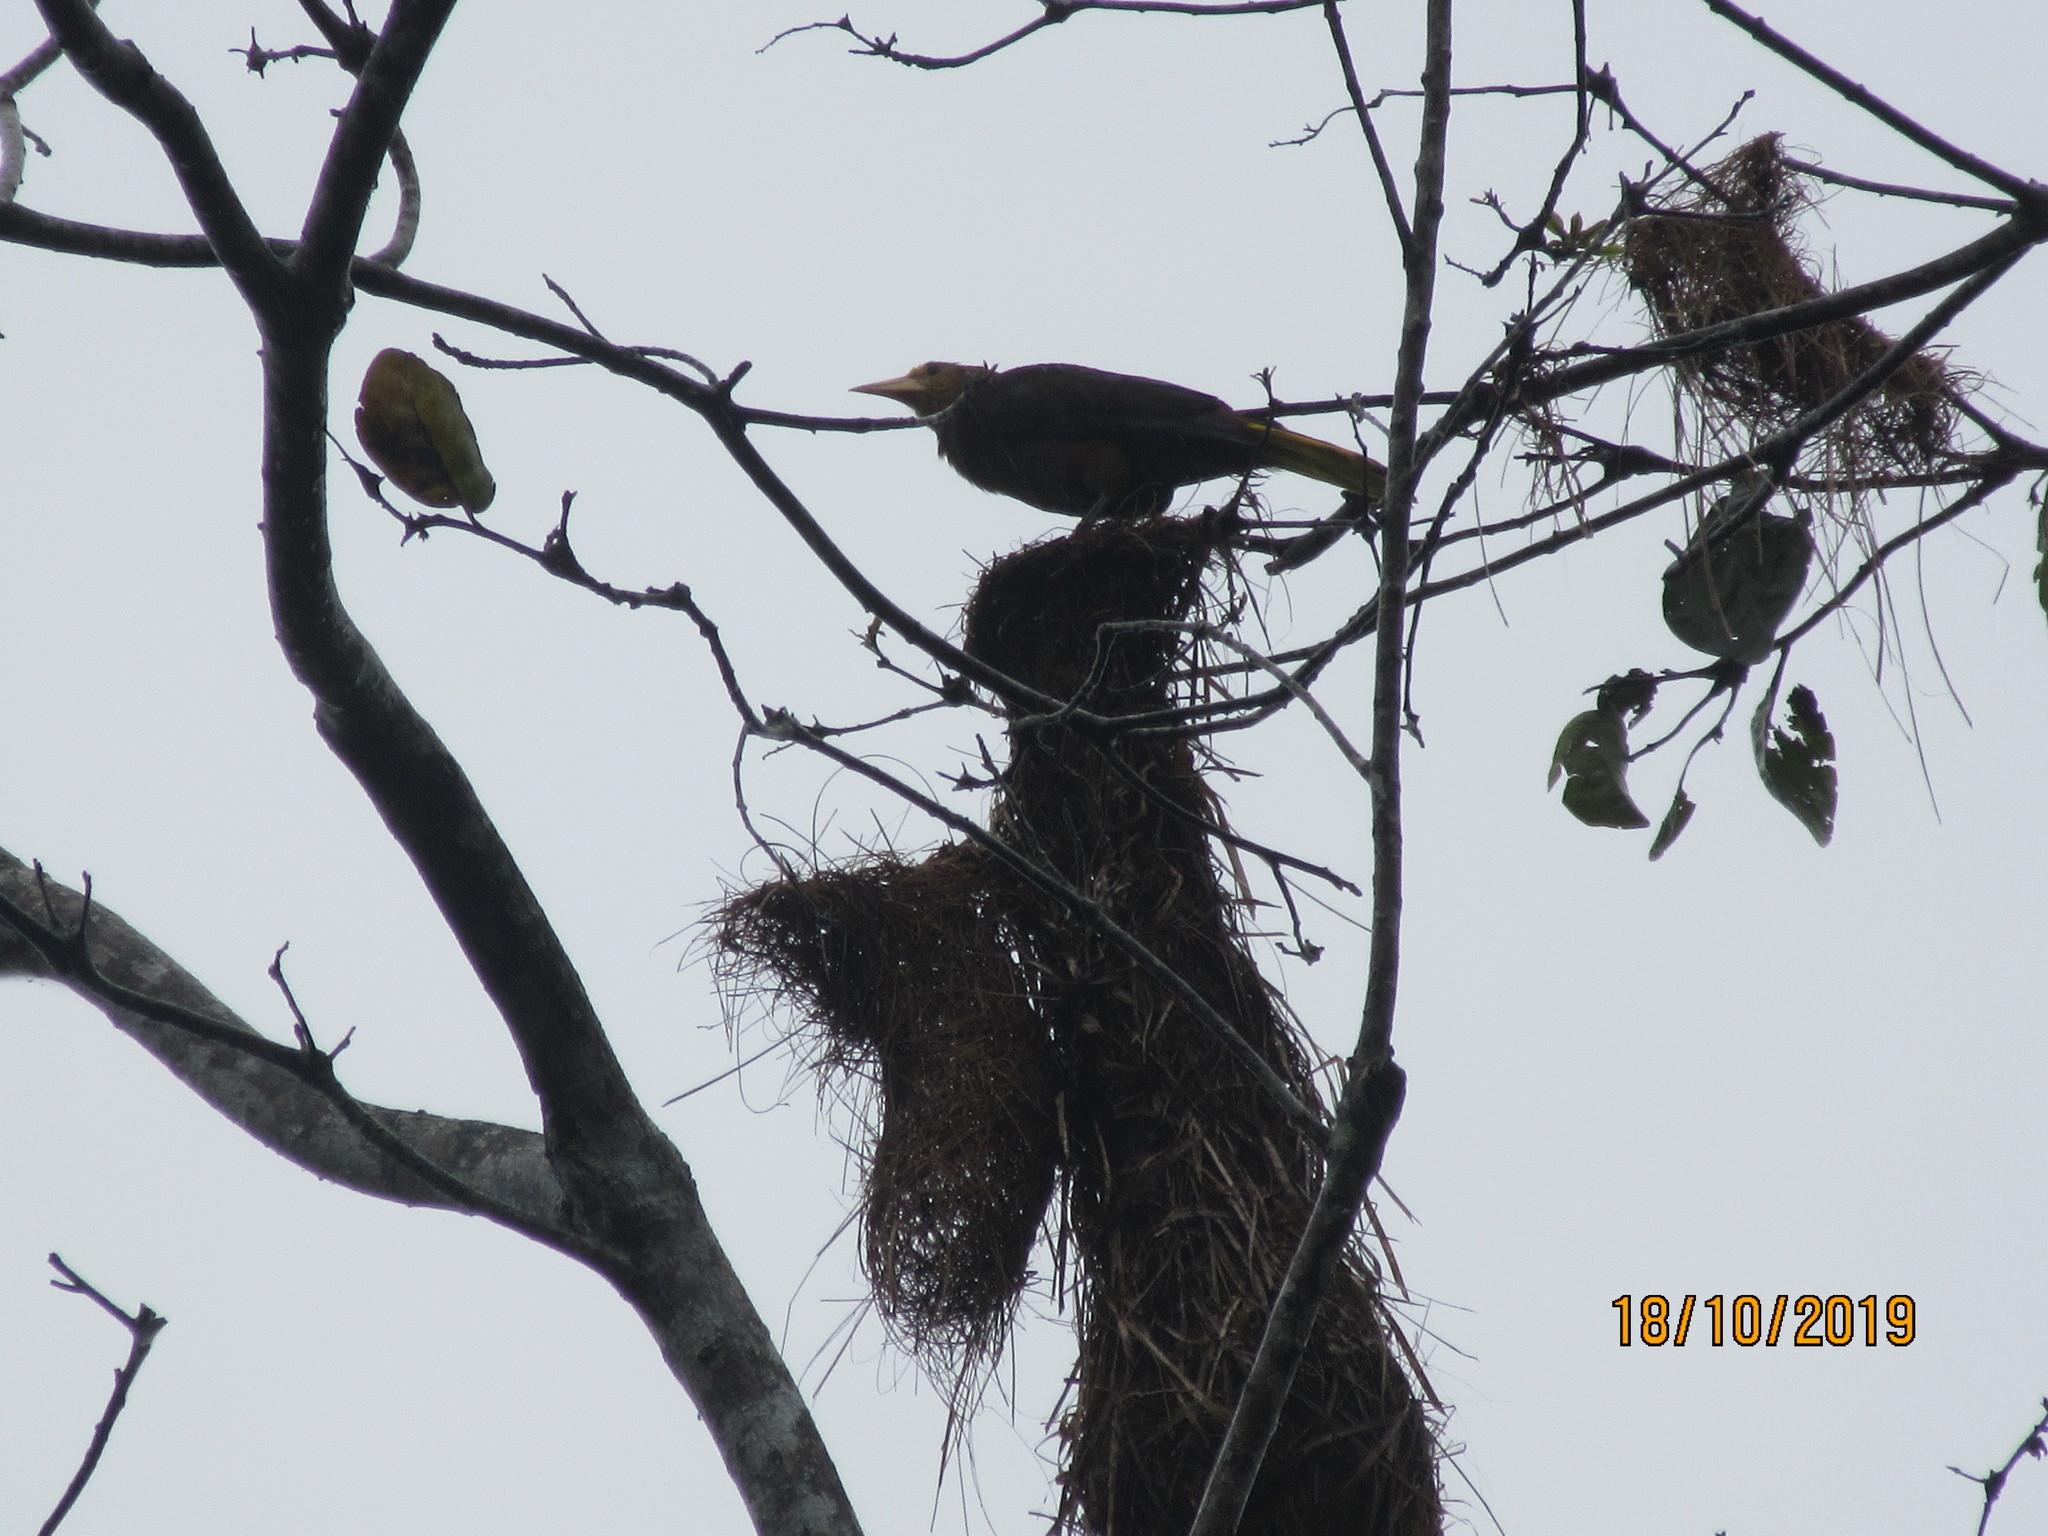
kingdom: Animalia
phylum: Chordata
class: Aves
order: Passeriformes
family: Icteridae
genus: Psarocolius
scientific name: Psarocolius angustifrons
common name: Russet-backed oropendola
